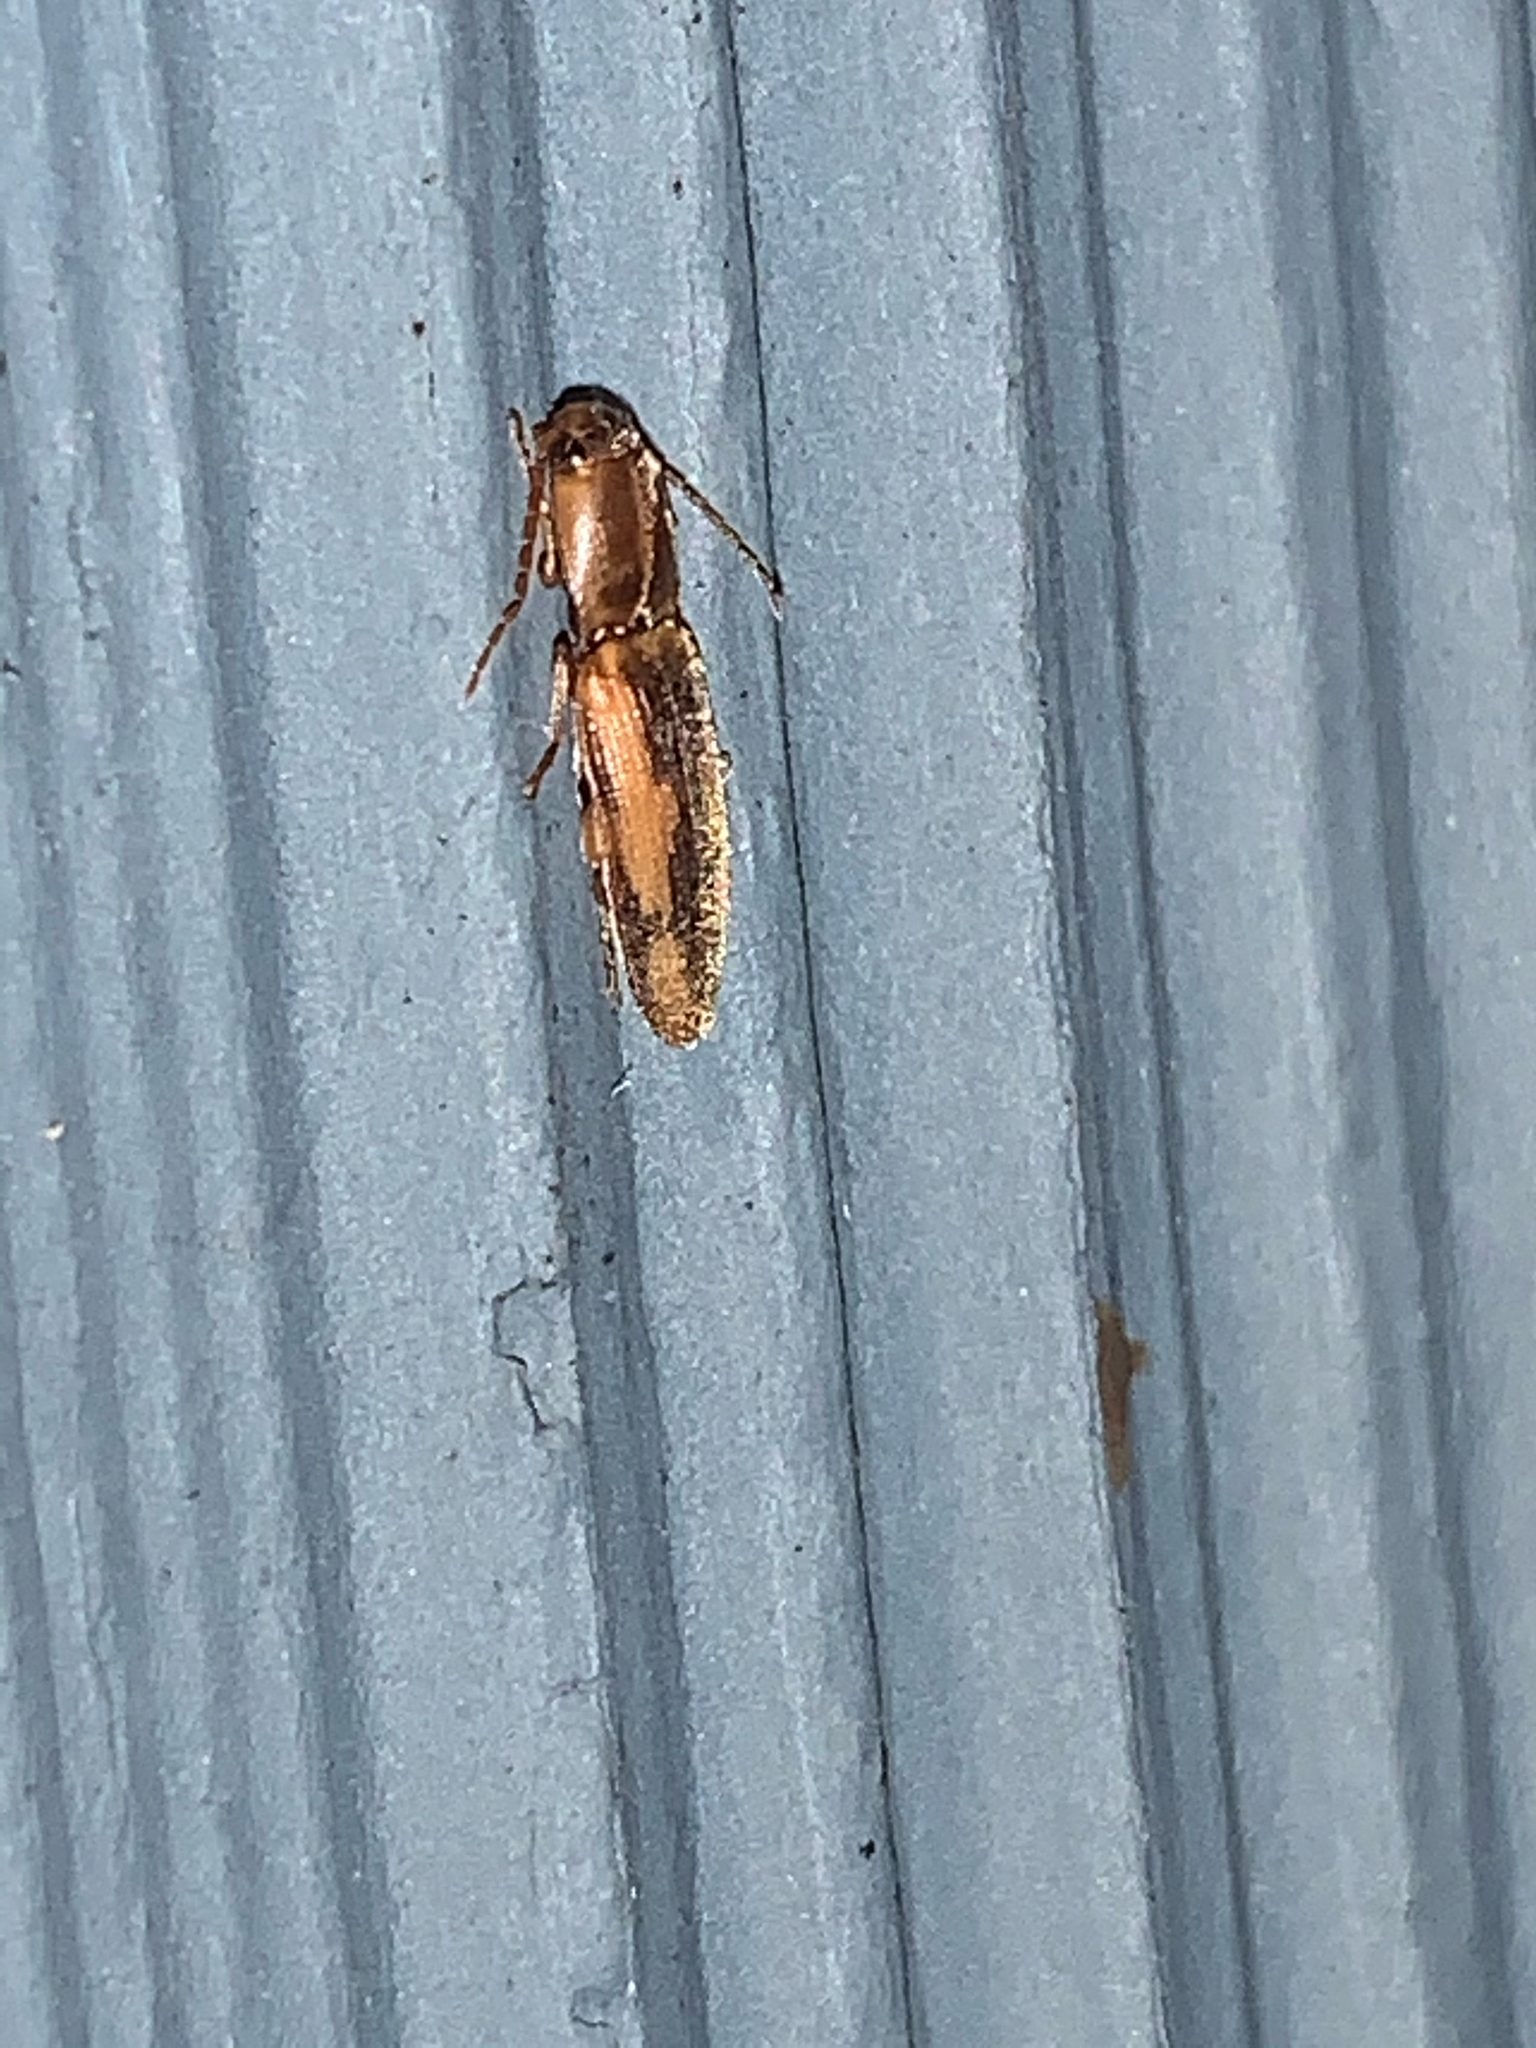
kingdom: Animalia
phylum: Arthropoda
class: Insecta
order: Coleoptera
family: Elateridae
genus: Monocrepidius
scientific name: Monocrepidius
